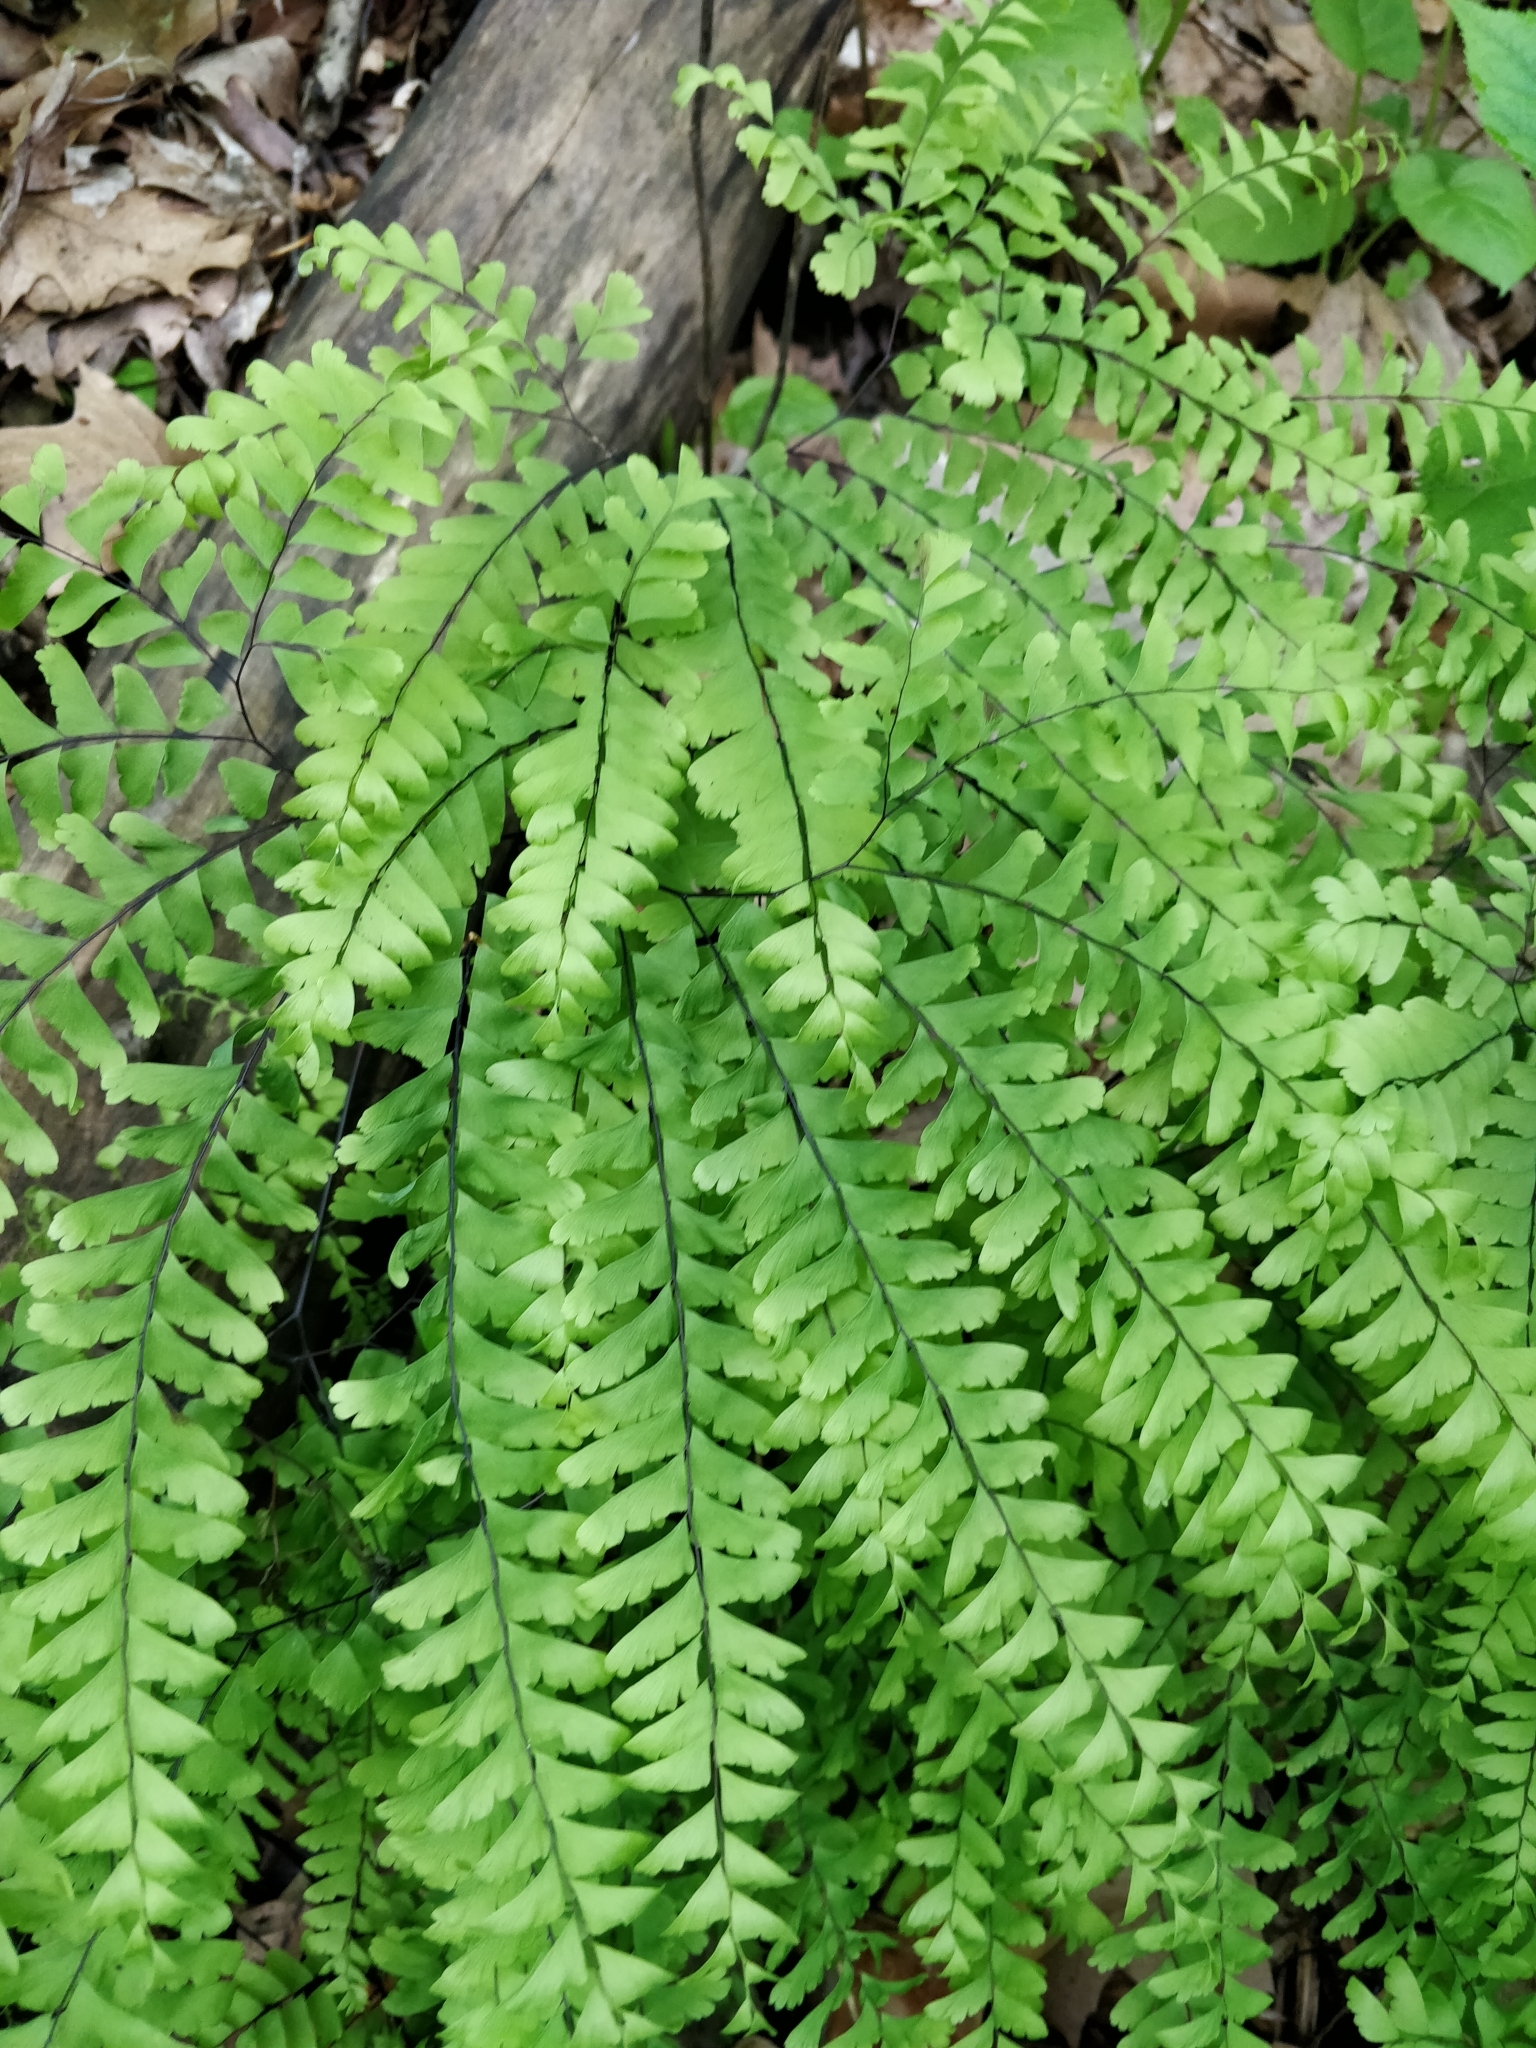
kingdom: Plantae
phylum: Tracheophyta
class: Polypodiopsida
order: Polypodiales
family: Pteridaceae
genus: Adiantum
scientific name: Adiantum pedatum
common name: Five-finger fern
